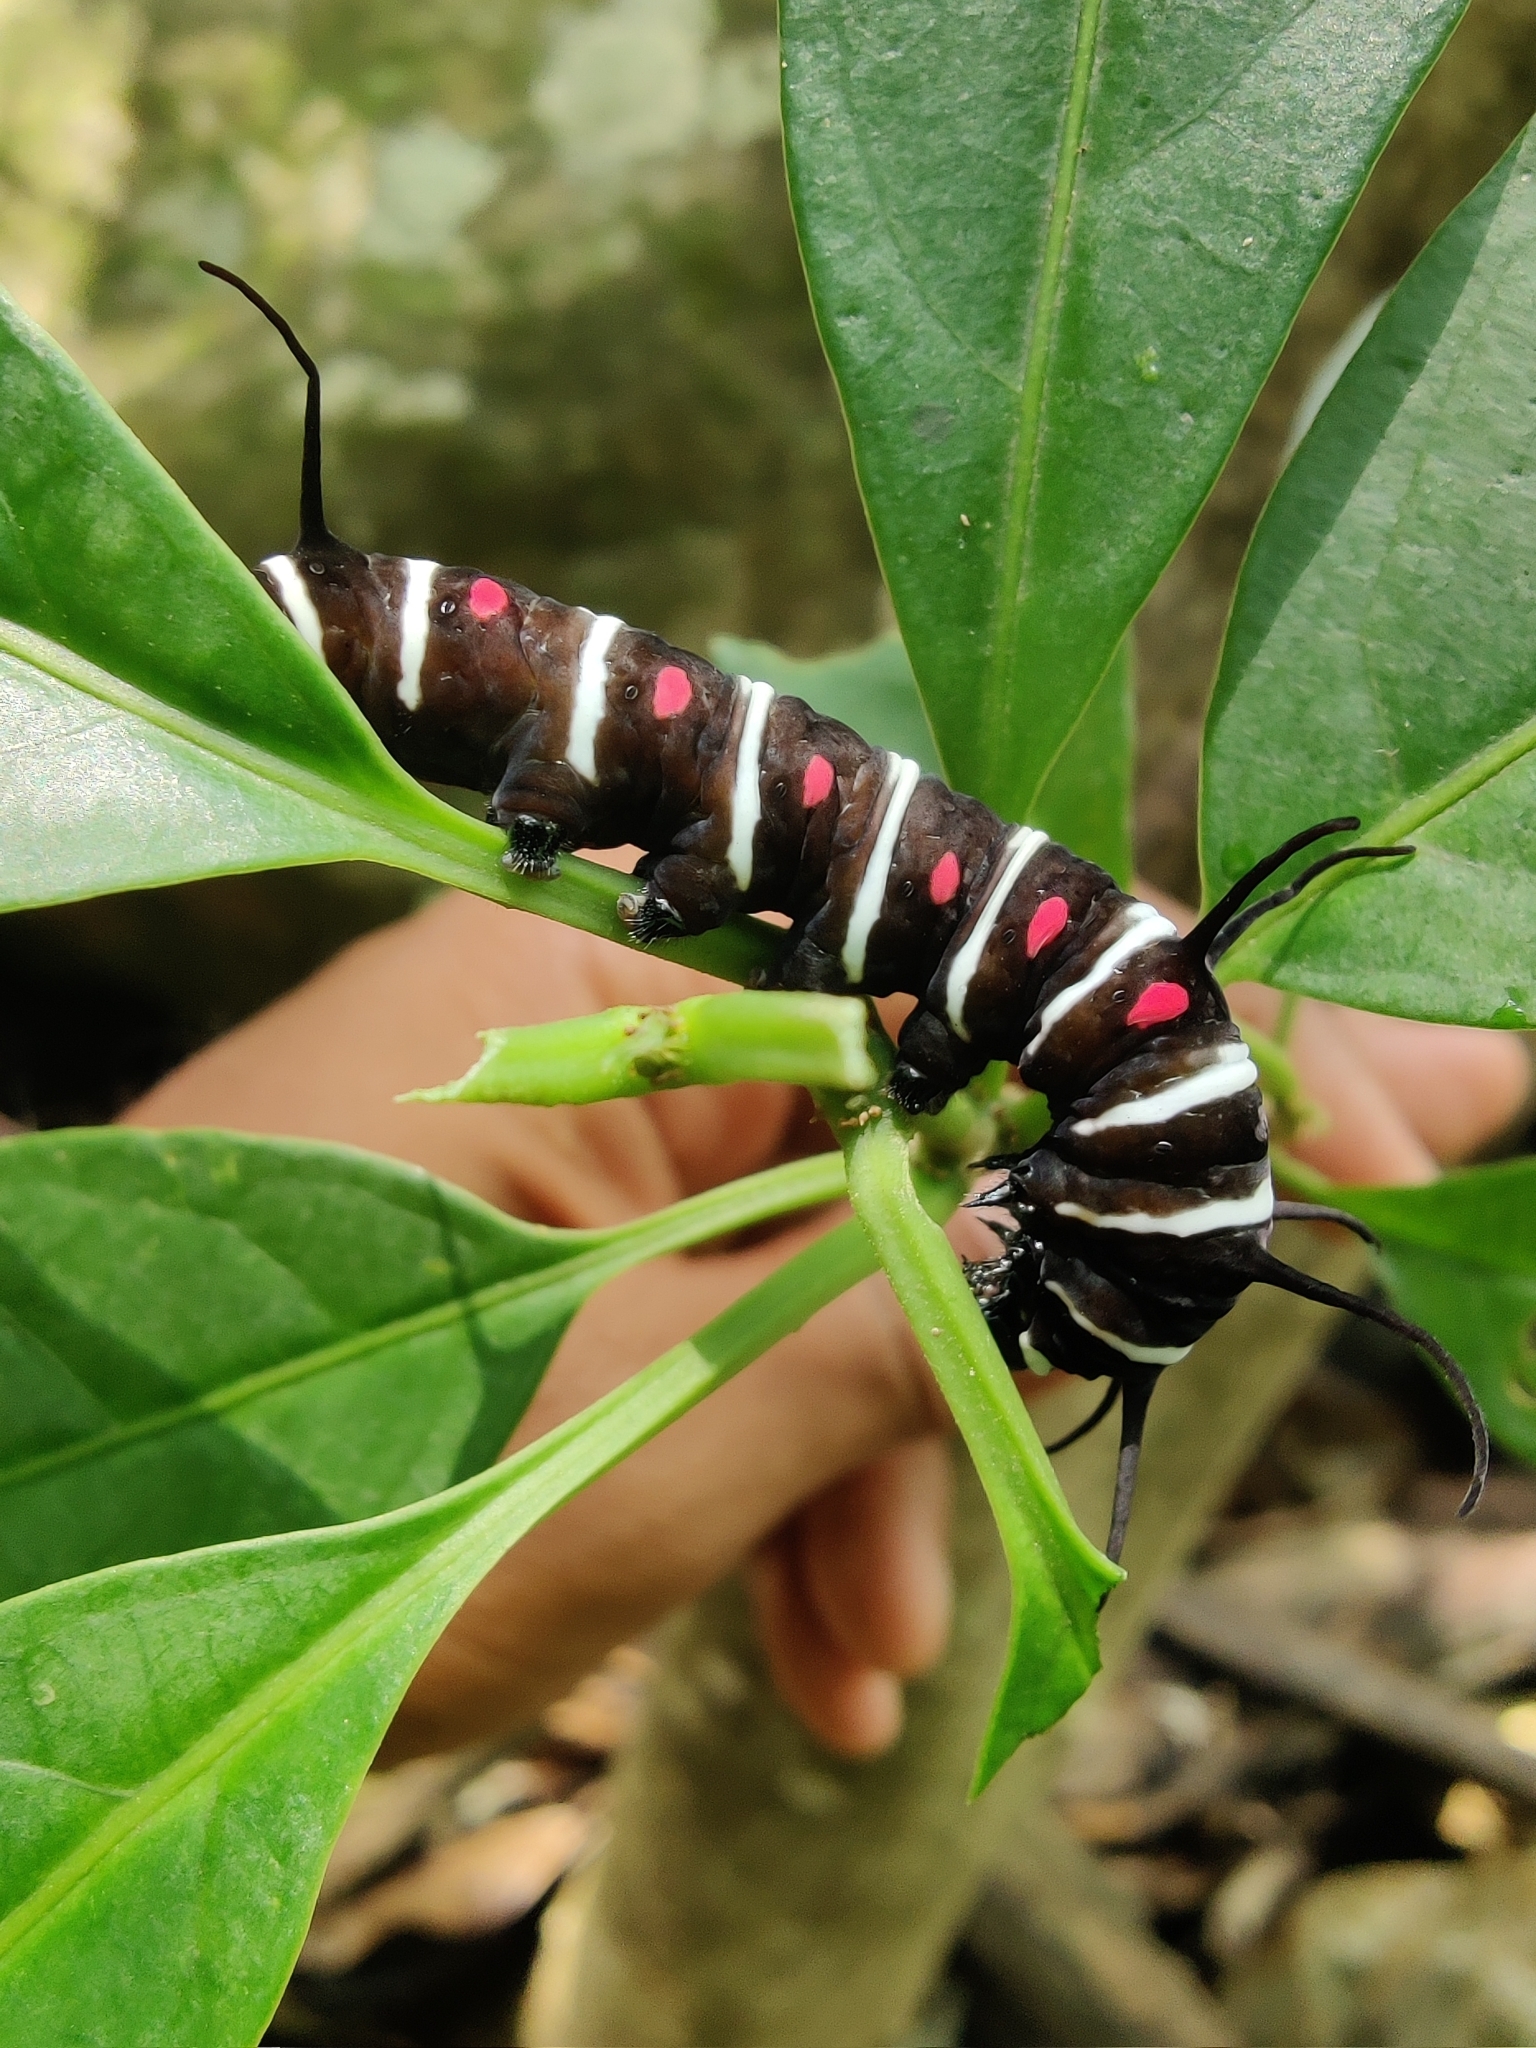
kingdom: Animalia
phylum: Arthropoda
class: Insecta
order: Lepidoptera
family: Nymphalidae
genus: Idea
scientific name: Idea malabarica
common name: Malabar tree-nymph
